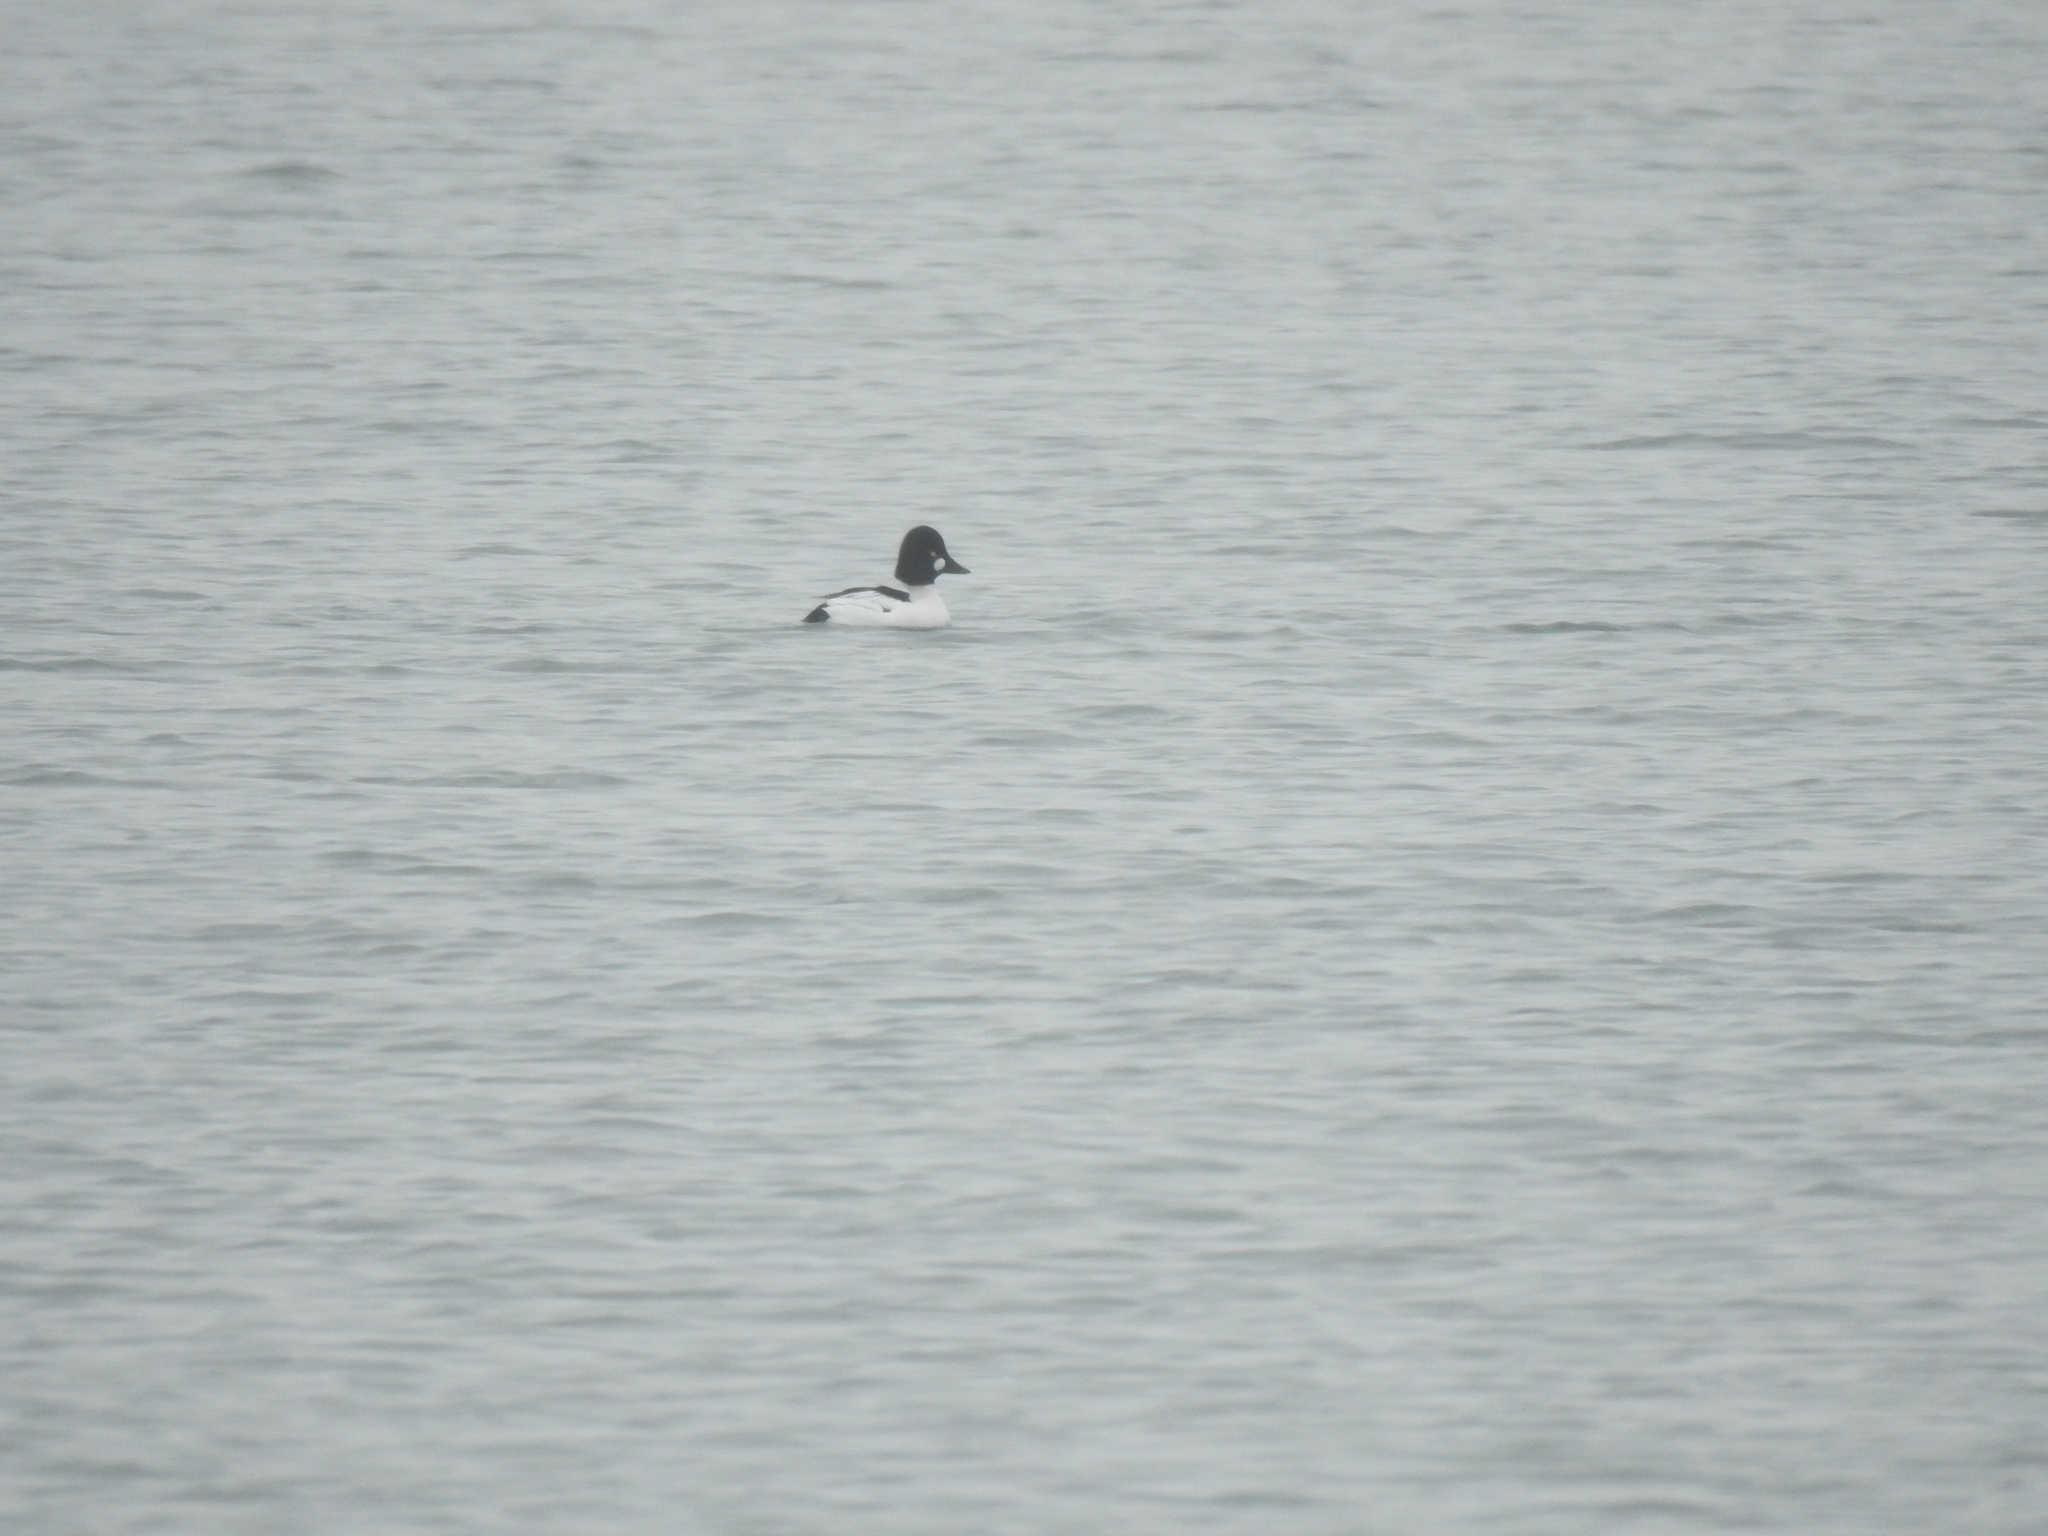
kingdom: Animalia
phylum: Chordata
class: Aves
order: Anseriformes
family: Anatidae
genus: Bucephala
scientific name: Bucephala clangula
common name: Common goldeneye
